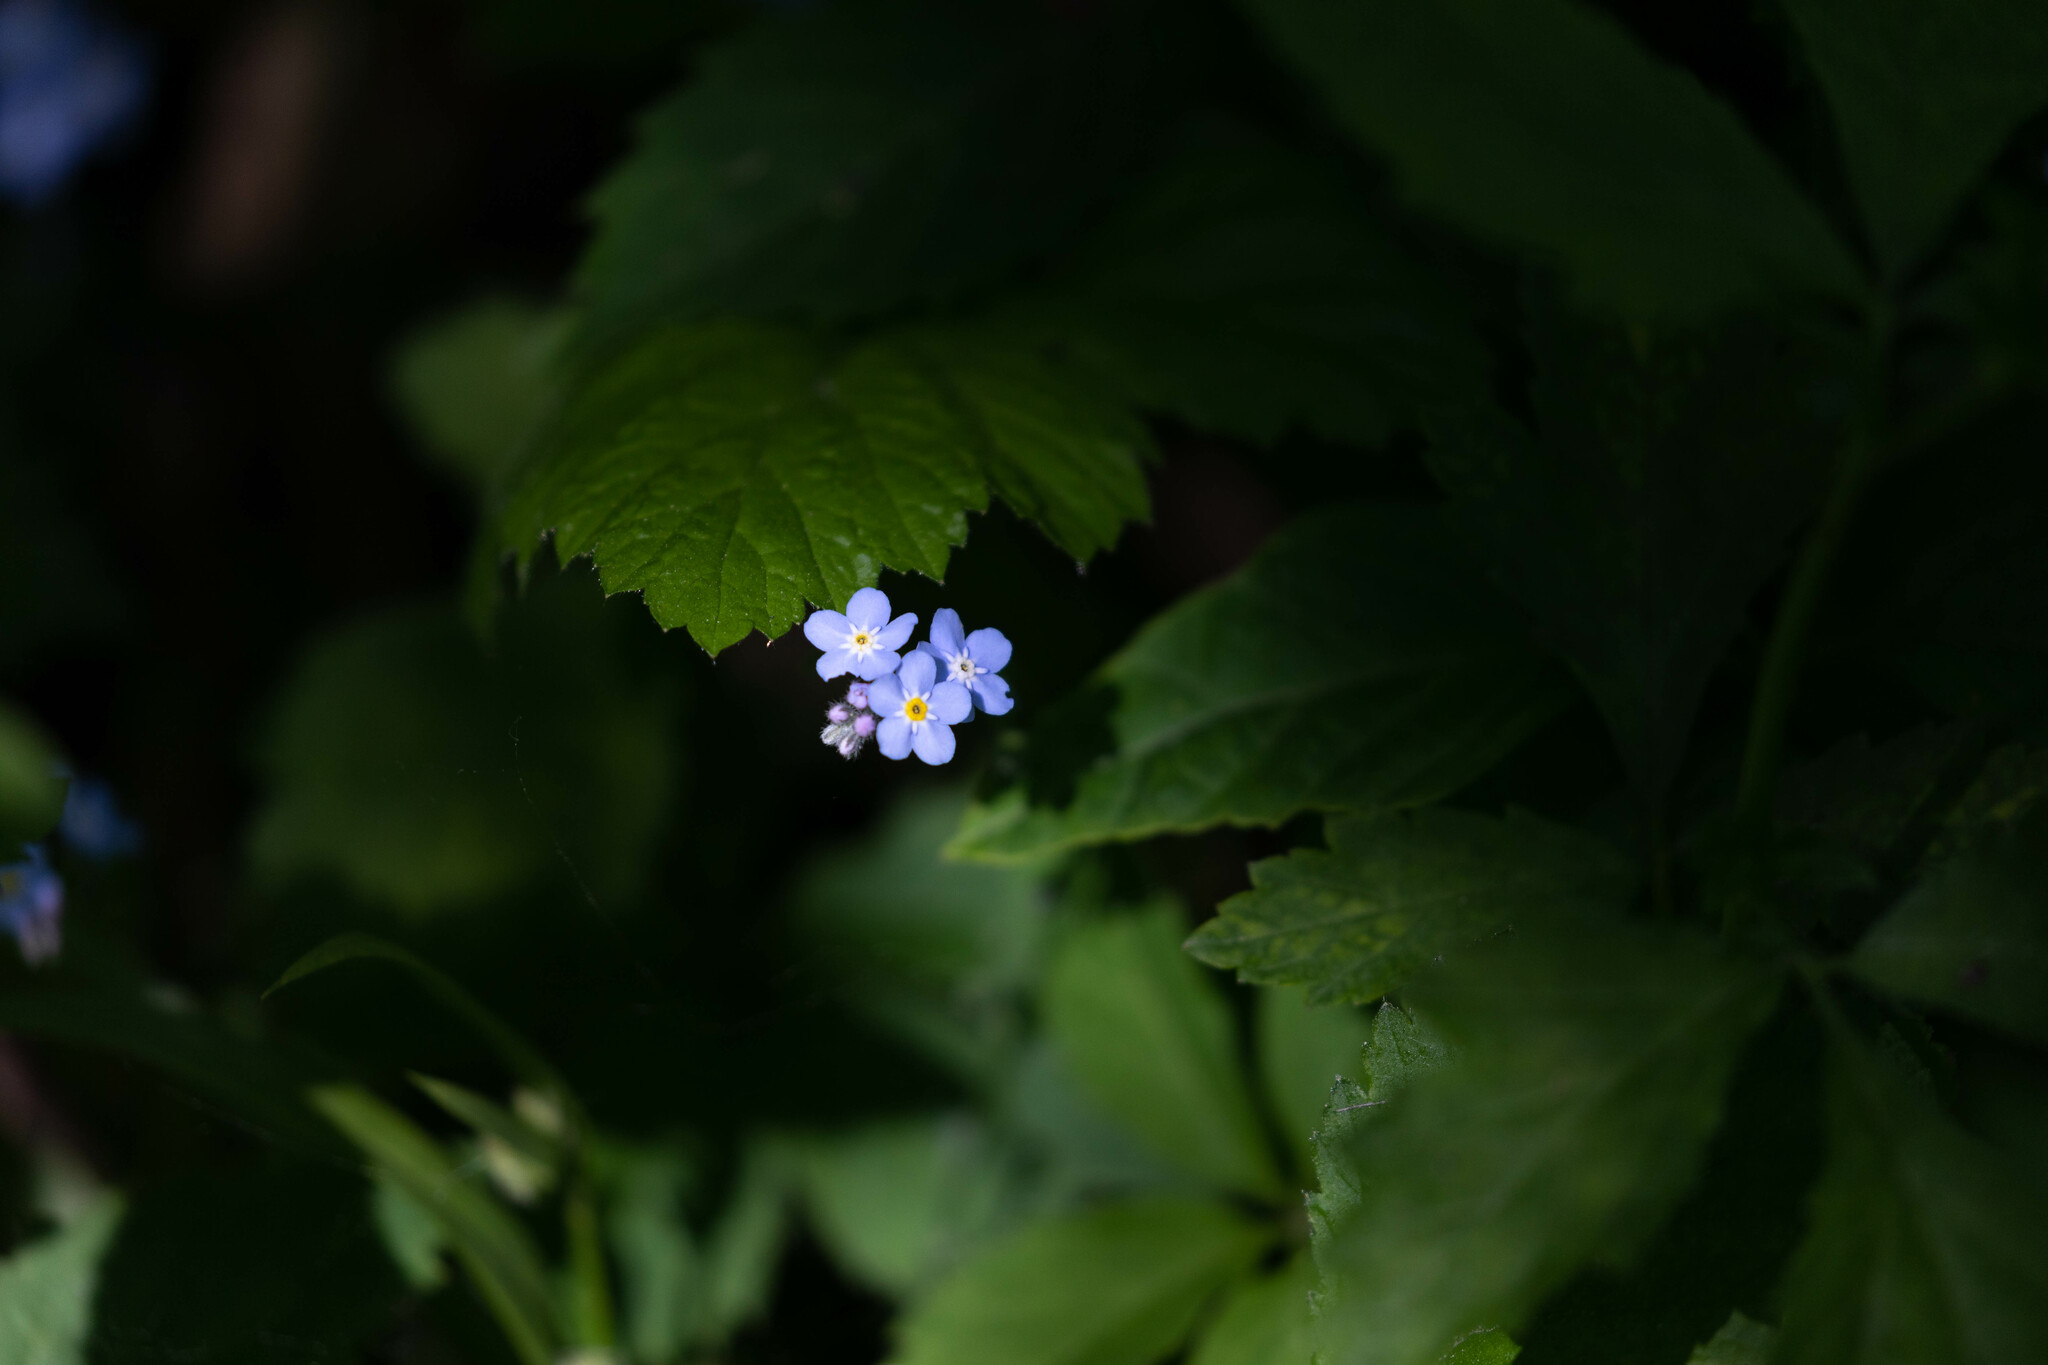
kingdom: Plantae
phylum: Tracheophyta
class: Magnoliopsida
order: Boraginales
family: Boraginaceae
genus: Myosotis
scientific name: Myosotis sylvatica
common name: Wood forget-me-not
